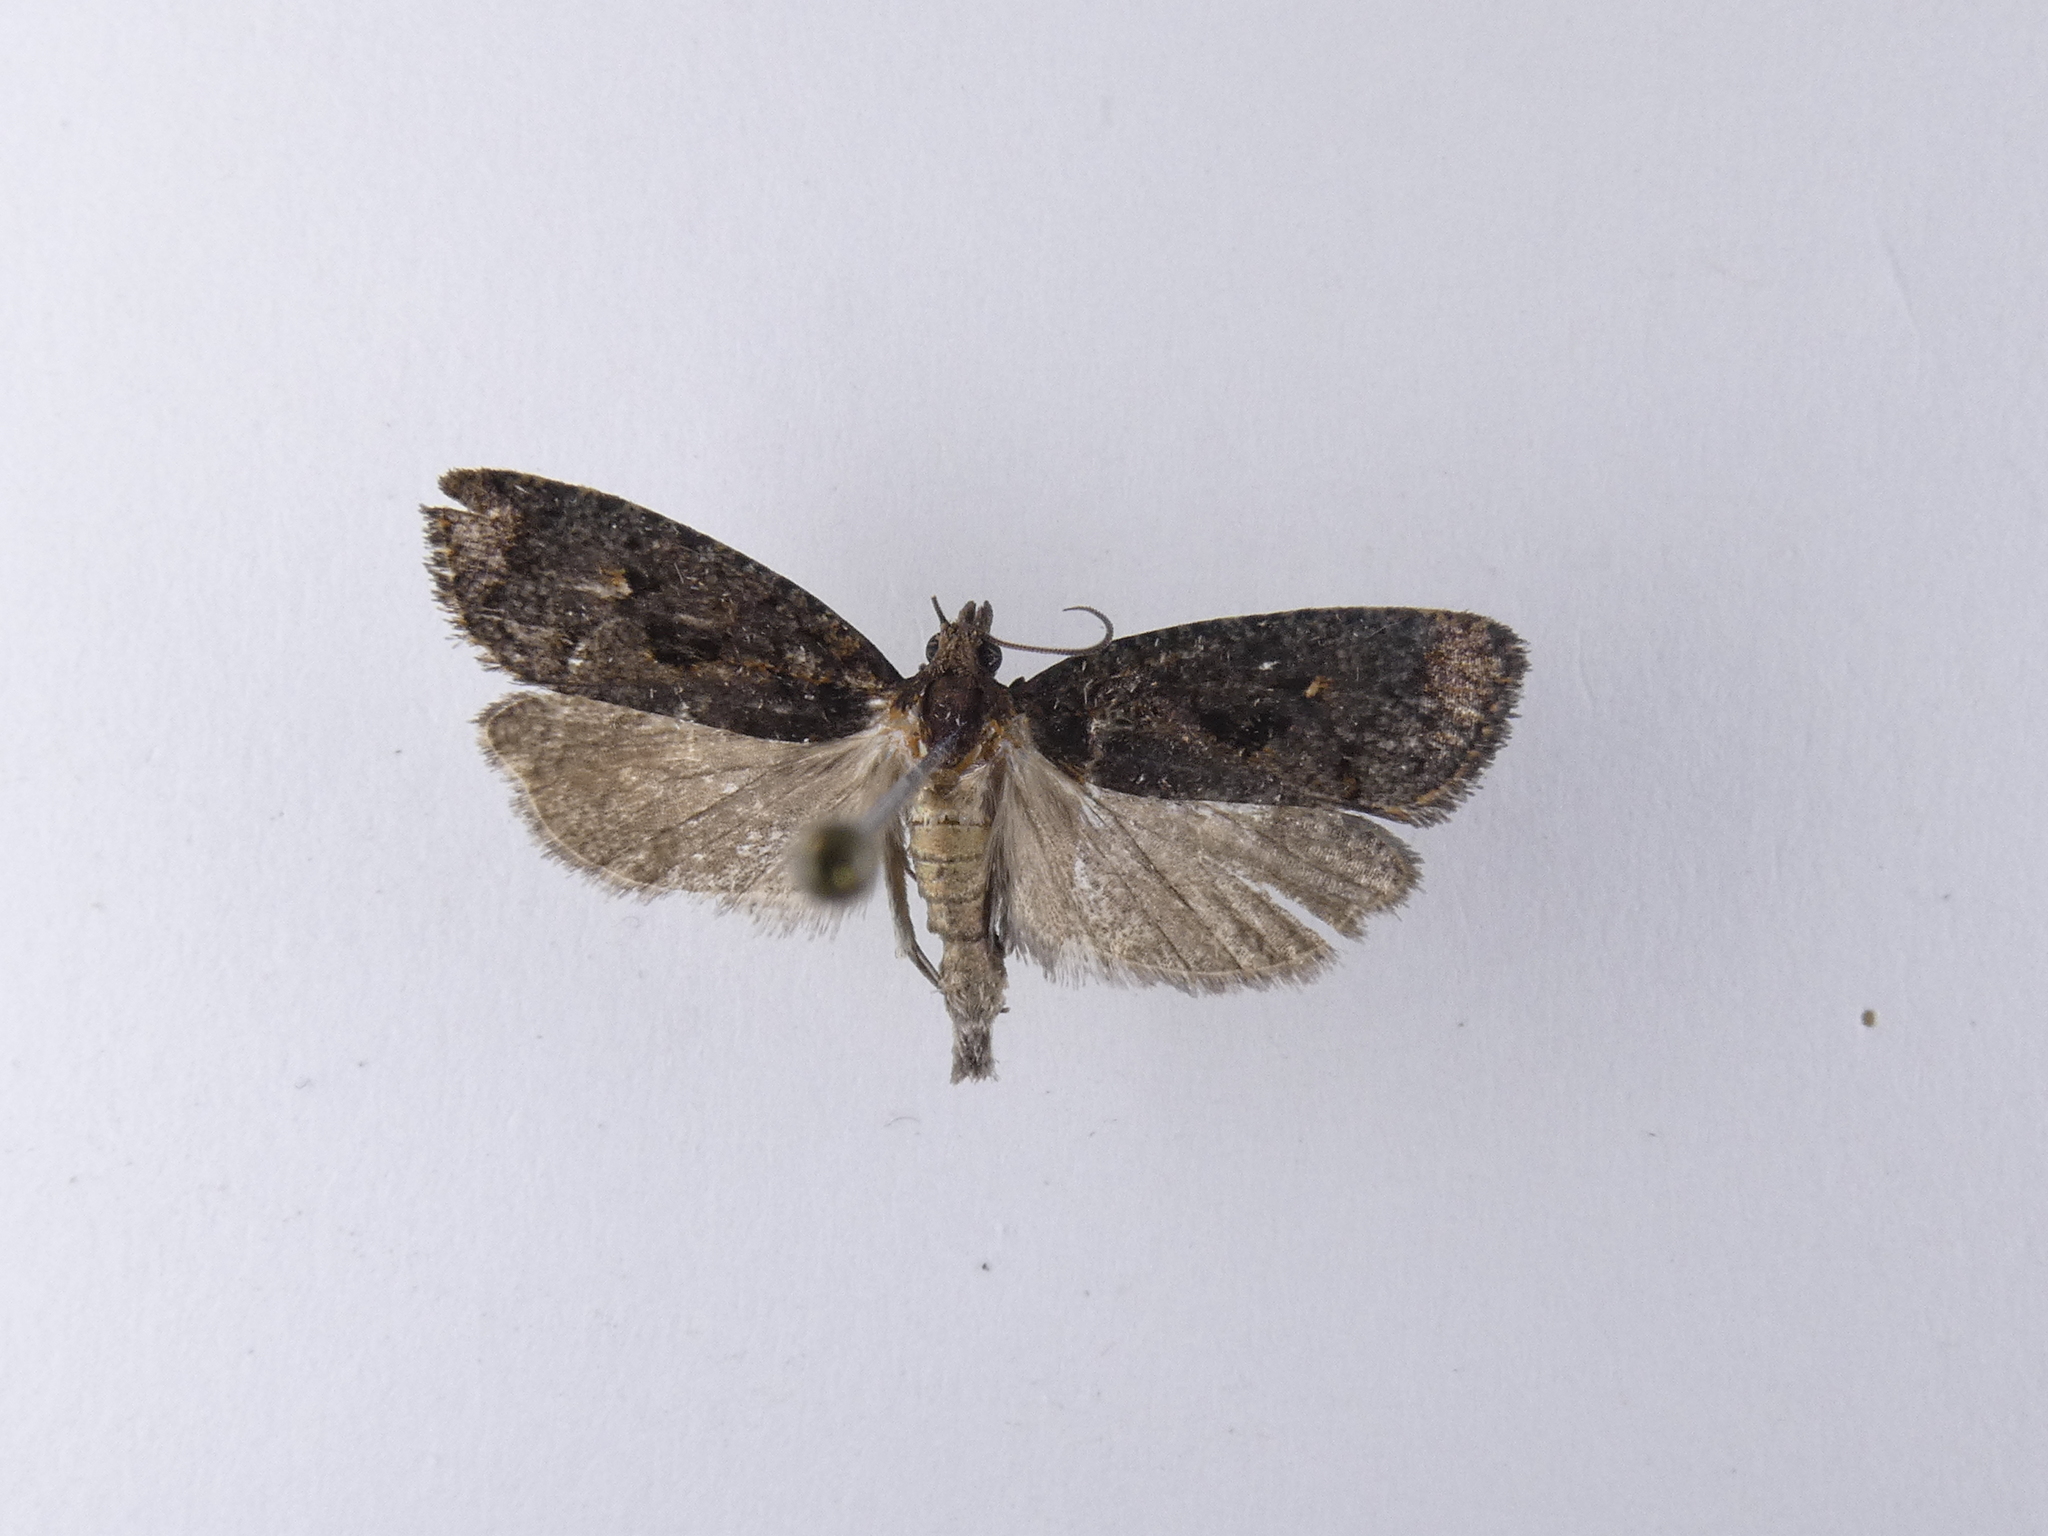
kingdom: Animalia
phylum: Arthropoda
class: Insecta
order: Lepidoptera
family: Tortricidae
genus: Cryptaspasma
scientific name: Cryptaspasma querula
